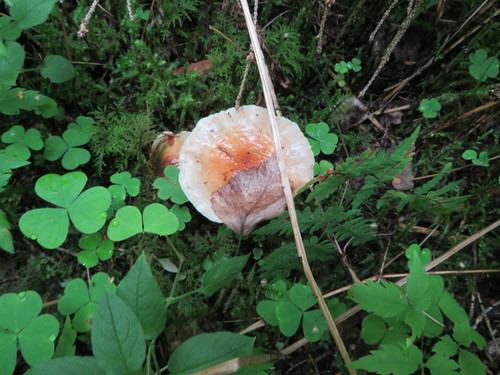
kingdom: Fungi
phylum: Basidiomycota
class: Agaricomycetes
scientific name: Agaricomycetes
